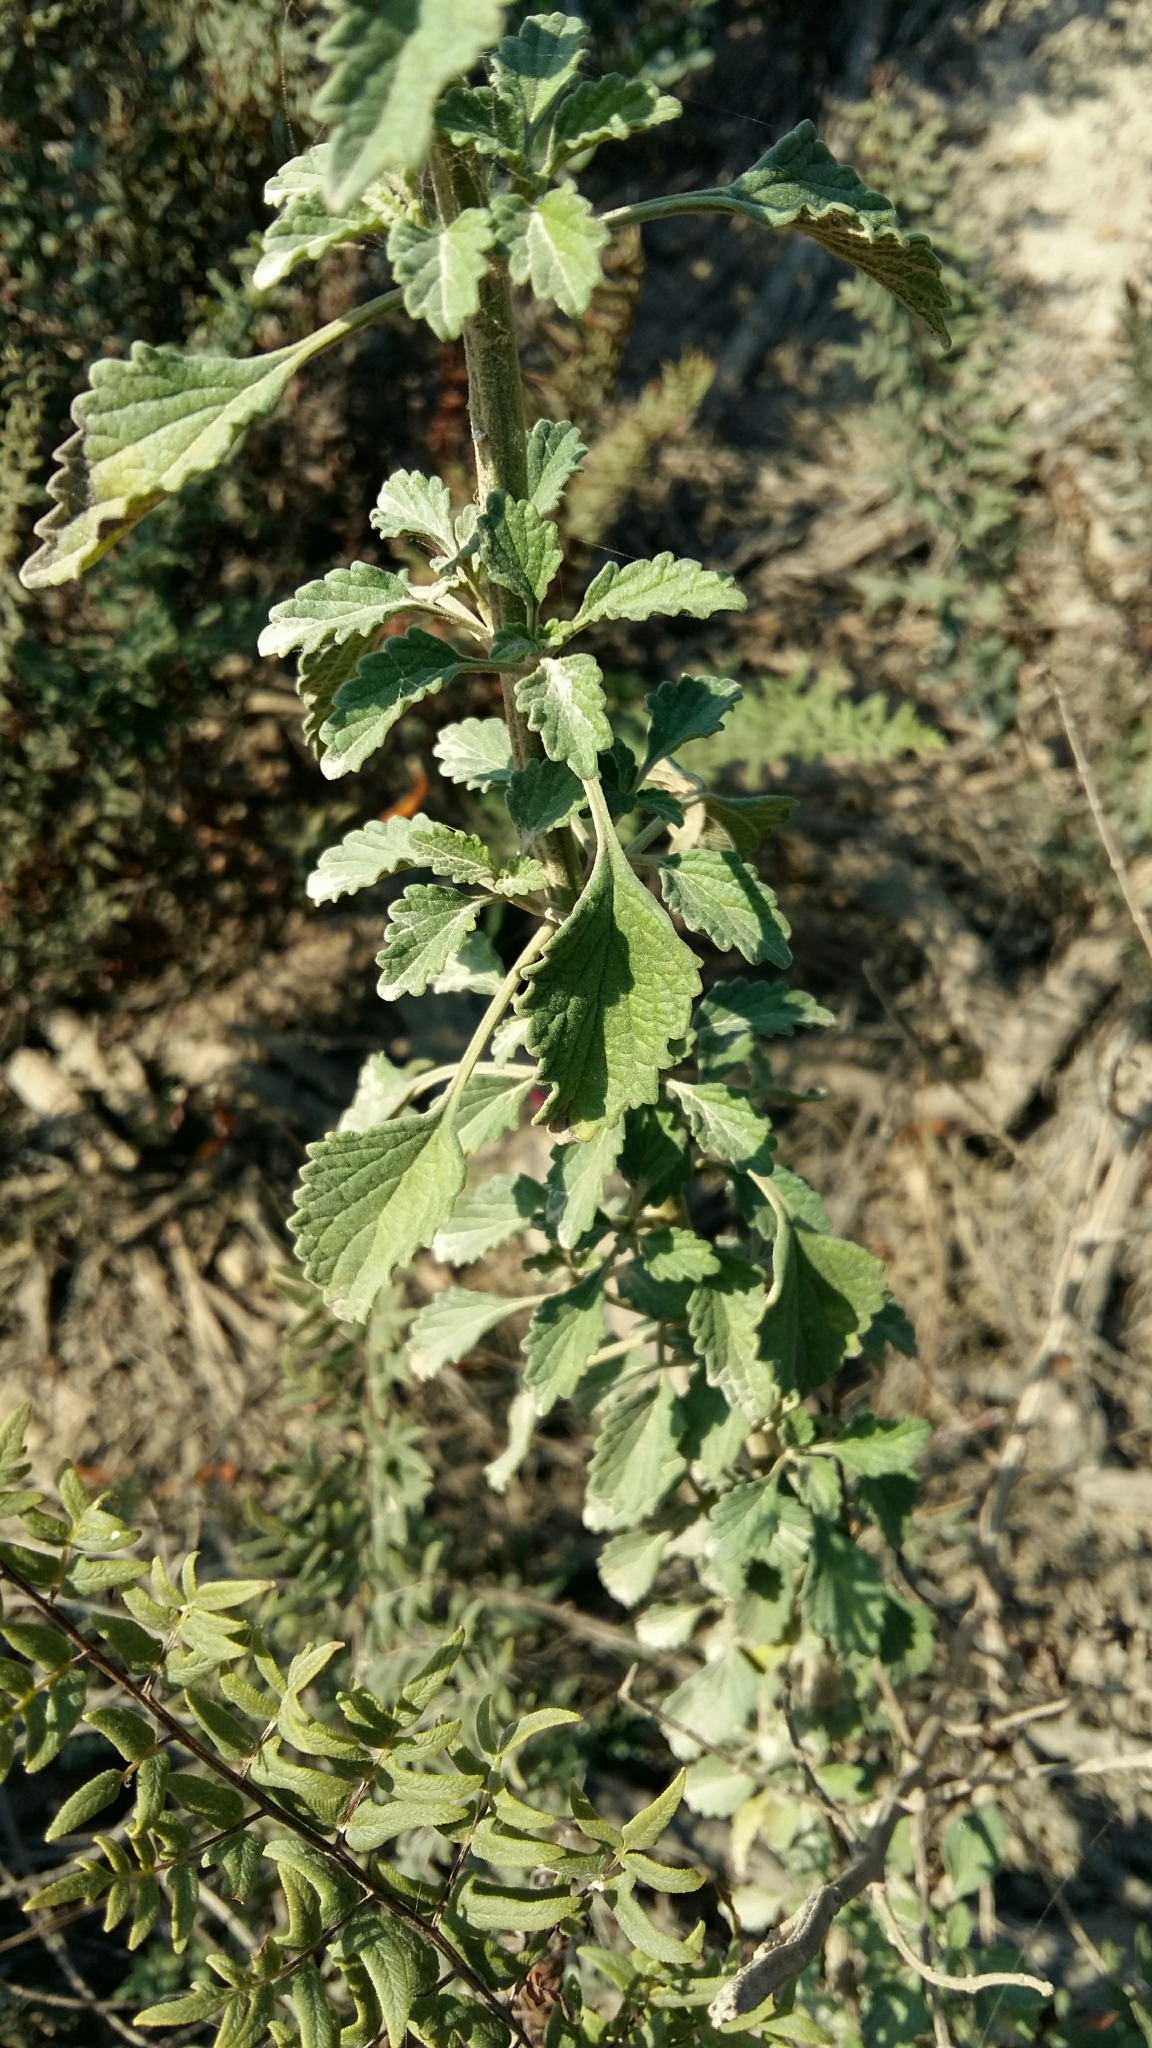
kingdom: Plantae
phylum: Tracheophyta
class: Magnoliopsida
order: Lamiales
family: Lamiaceae
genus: Leonotis
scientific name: Leonotis ocymifolia
